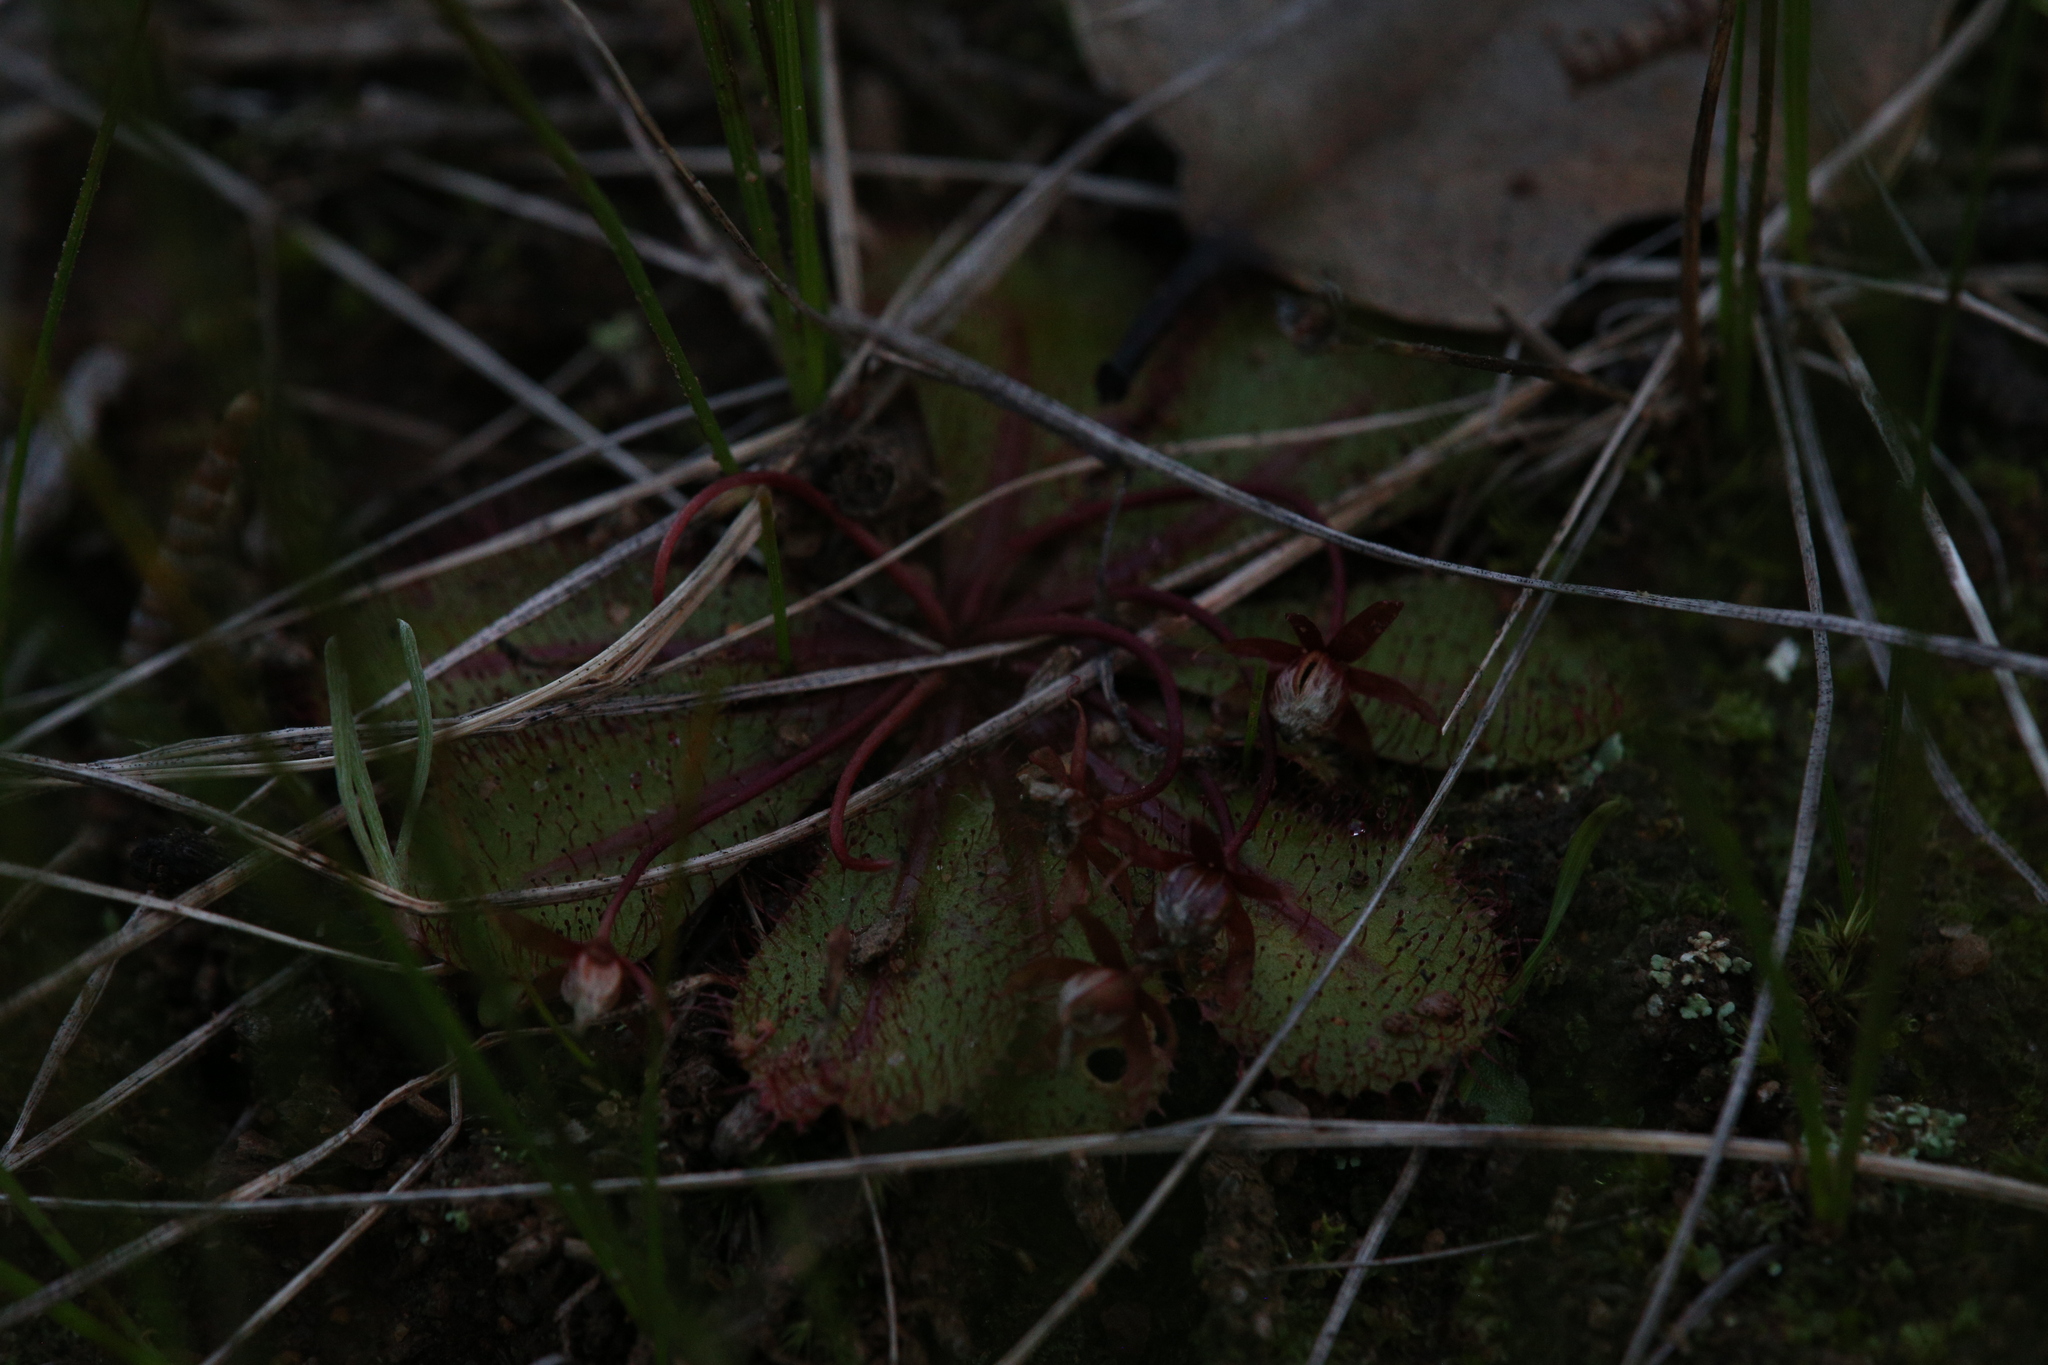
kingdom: Plantae
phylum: Tracheophyta
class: Magnoliopsida
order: Caryophyllales
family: Droseraceae
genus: Drosera
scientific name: Drosera bulbosa
